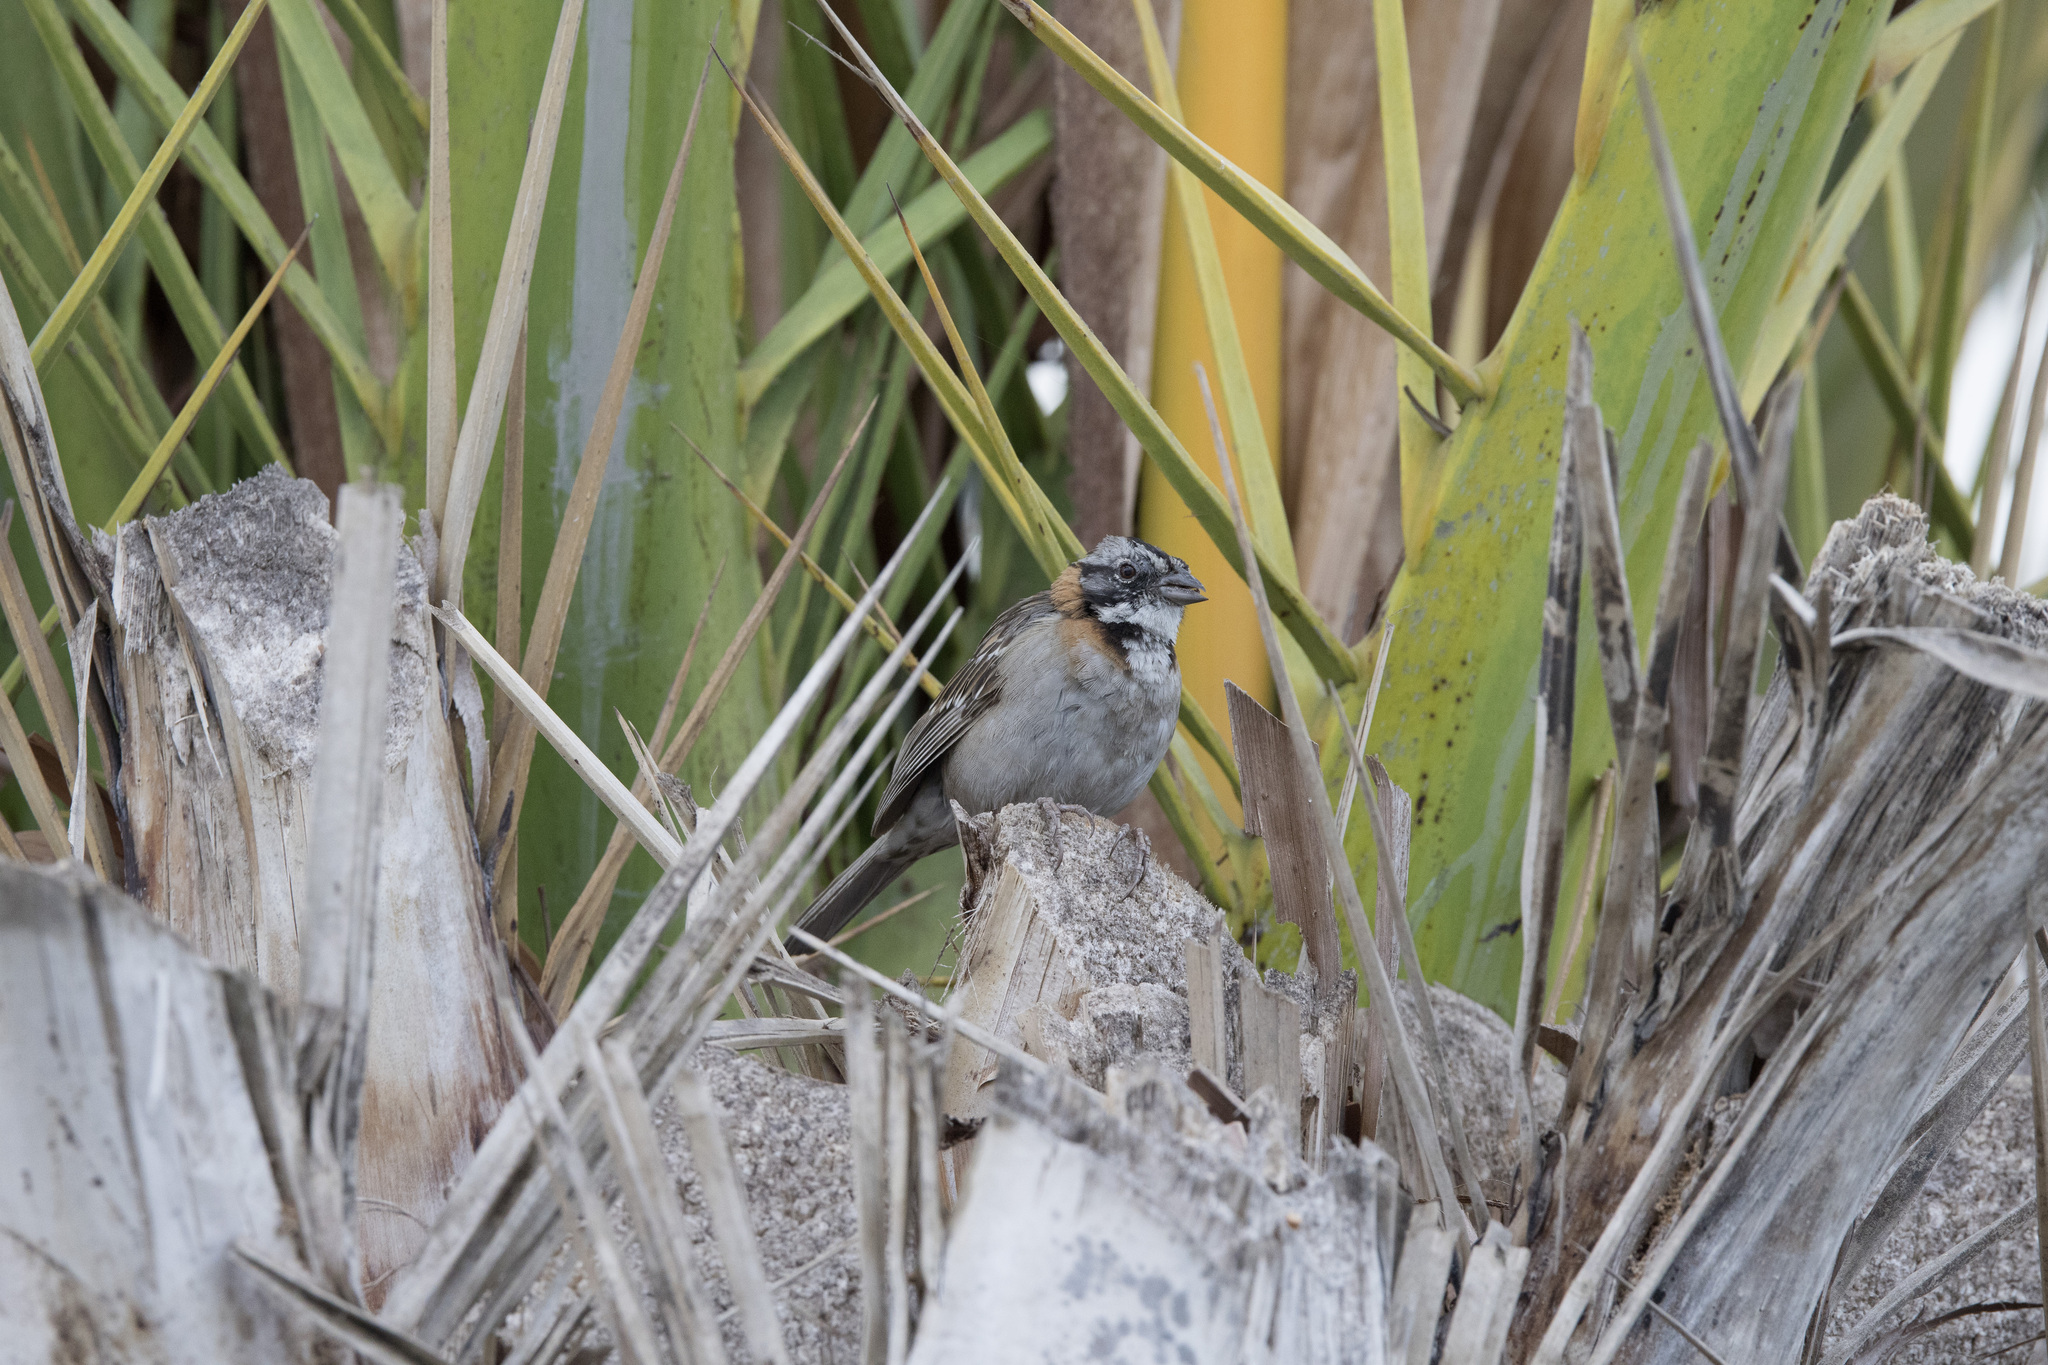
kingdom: Animalia
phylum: Chordata
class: Aves
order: Passeriformes
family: Passerellidae
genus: Zonotrichia
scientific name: Zonotrichia capensis
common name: Rufous-collared sparrow
